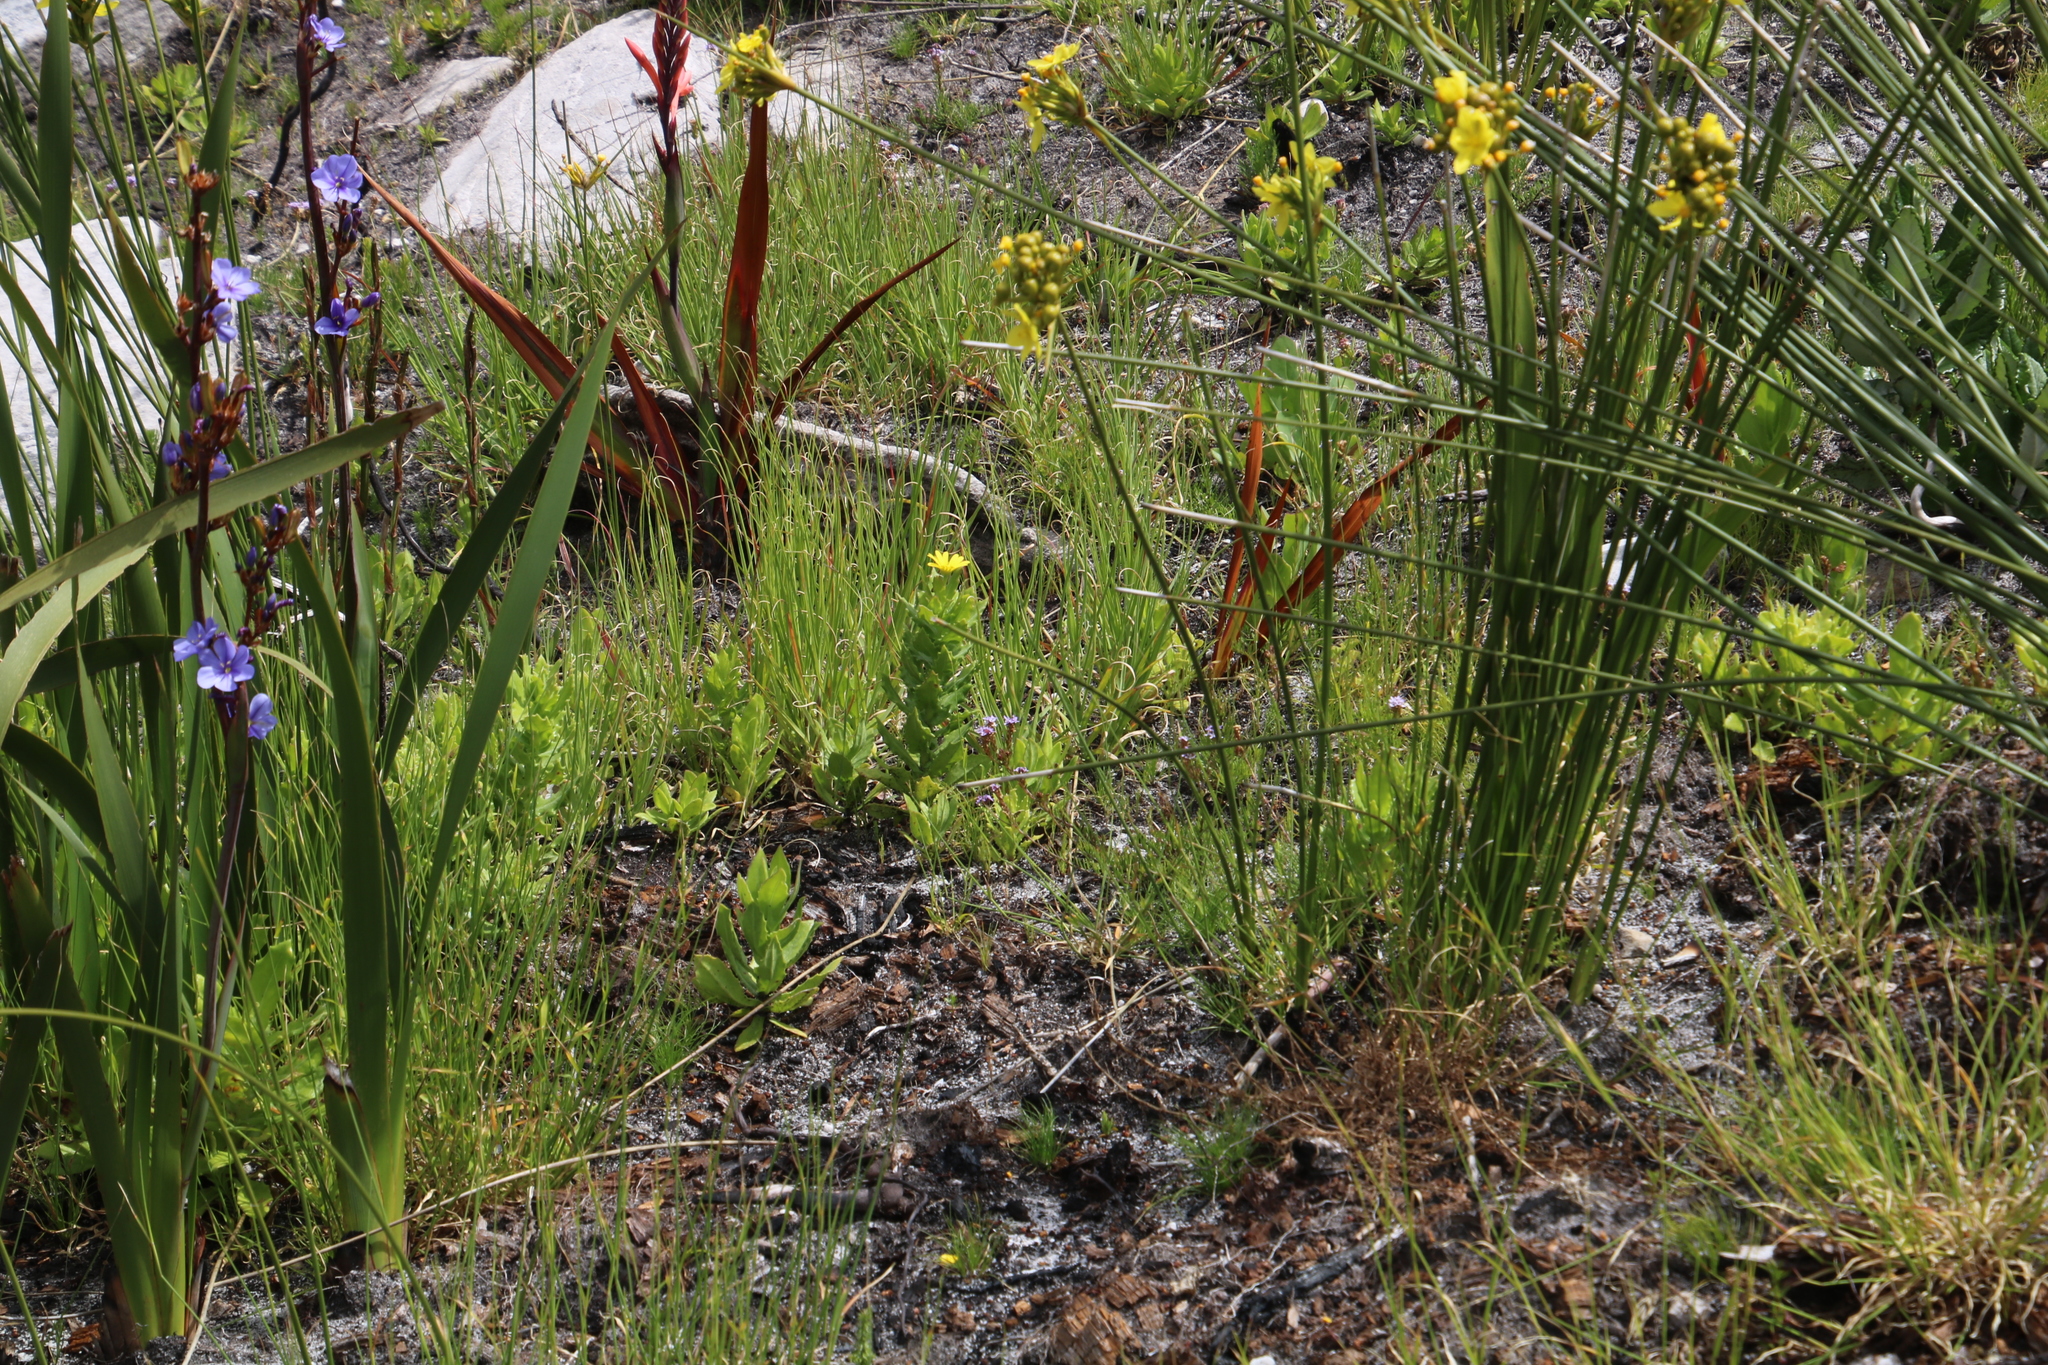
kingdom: Plantae
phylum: Tracheophyta
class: Magnoliopsida
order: Asterales
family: Asteraceae
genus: Osteospermum
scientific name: Osteospermum ilicifolium
